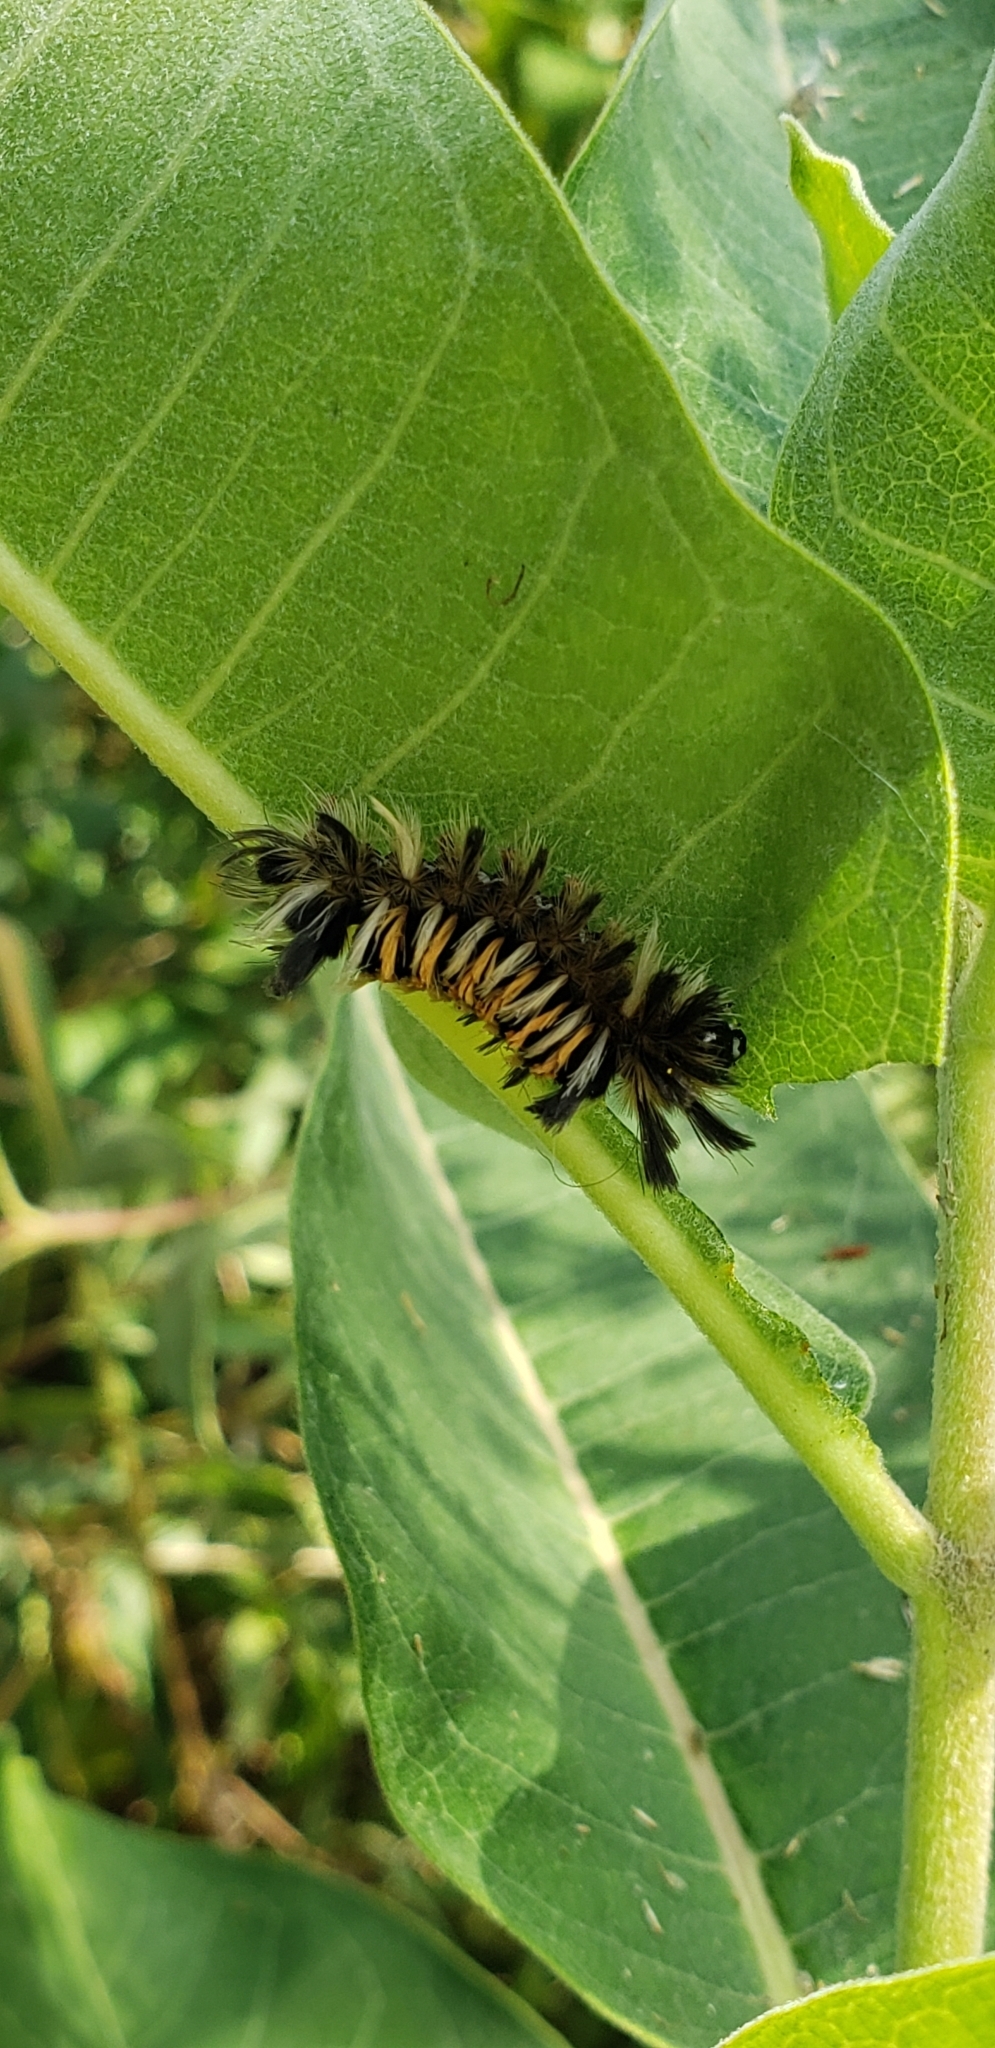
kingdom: Animalia
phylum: Arthropoda
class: Insecta
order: Lepidoptera
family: Erebidae
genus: Euchaetes
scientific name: Euchaetes egle
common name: Milkweed tussock moth
